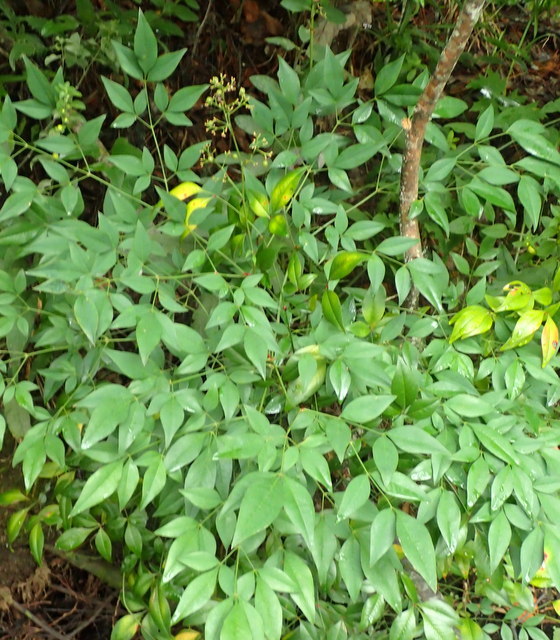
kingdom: Plantae
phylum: Tracheophyta
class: Magnoliopsida
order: Ranunculales
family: Berberidaceae
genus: Nandina
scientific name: Nandina domestica
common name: Sacred bamboo
